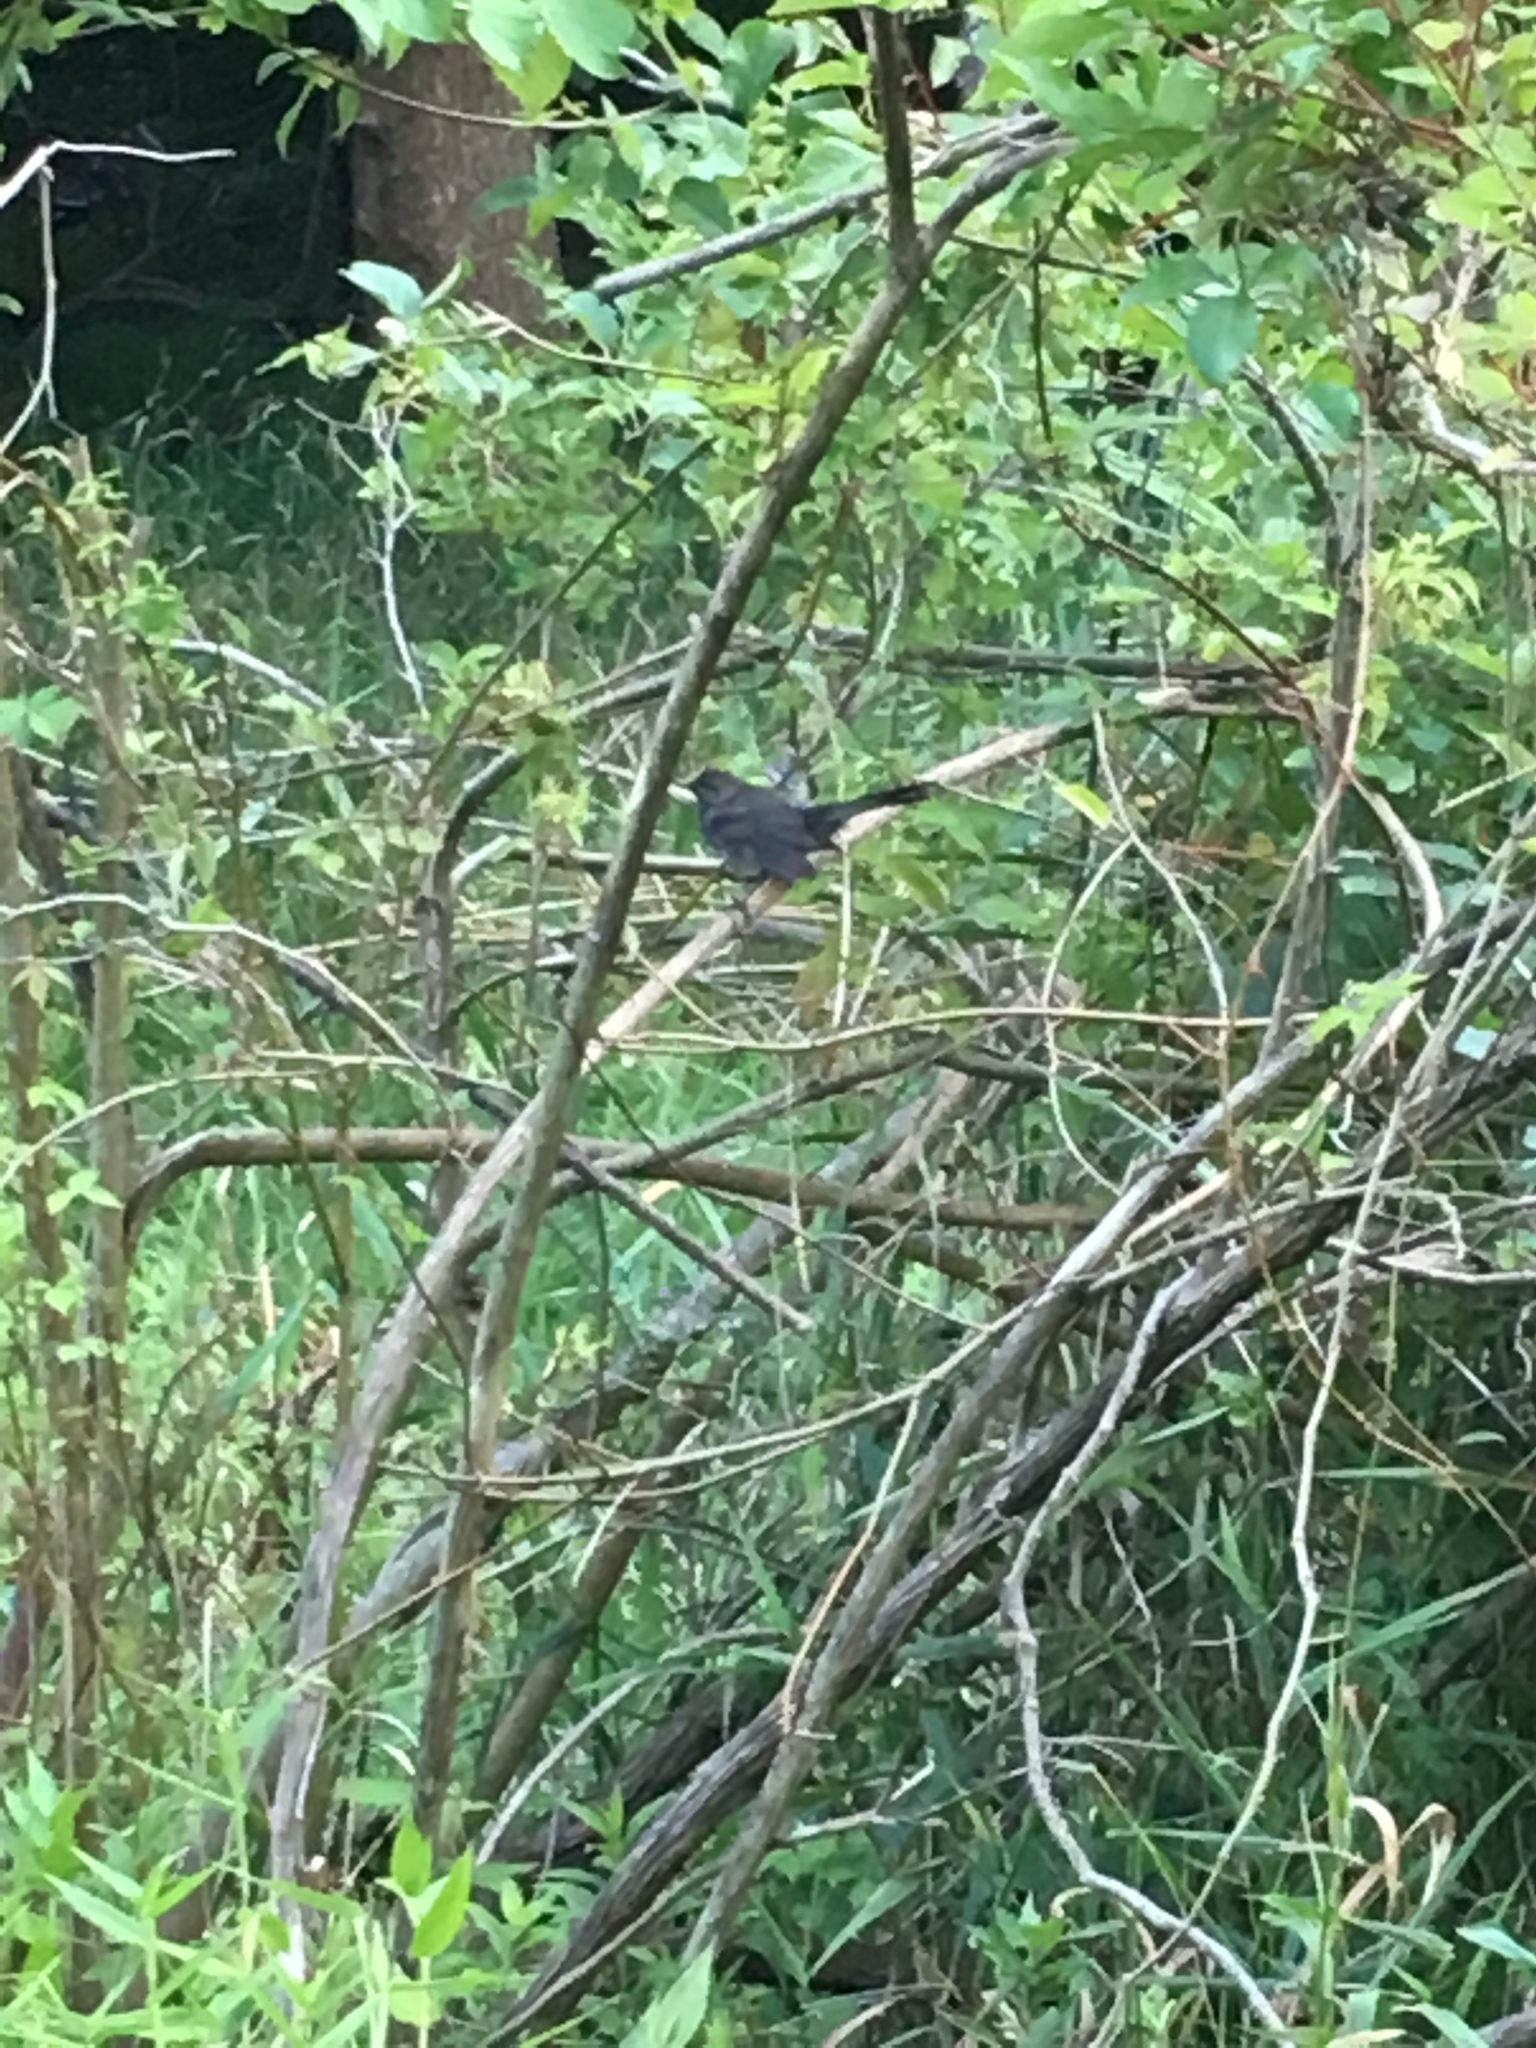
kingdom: Animalia
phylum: Chordata
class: Aves
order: Passeriformes
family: Mimidae
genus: Dumetella
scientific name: Dumetella carolinensis
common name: Gray catbird
